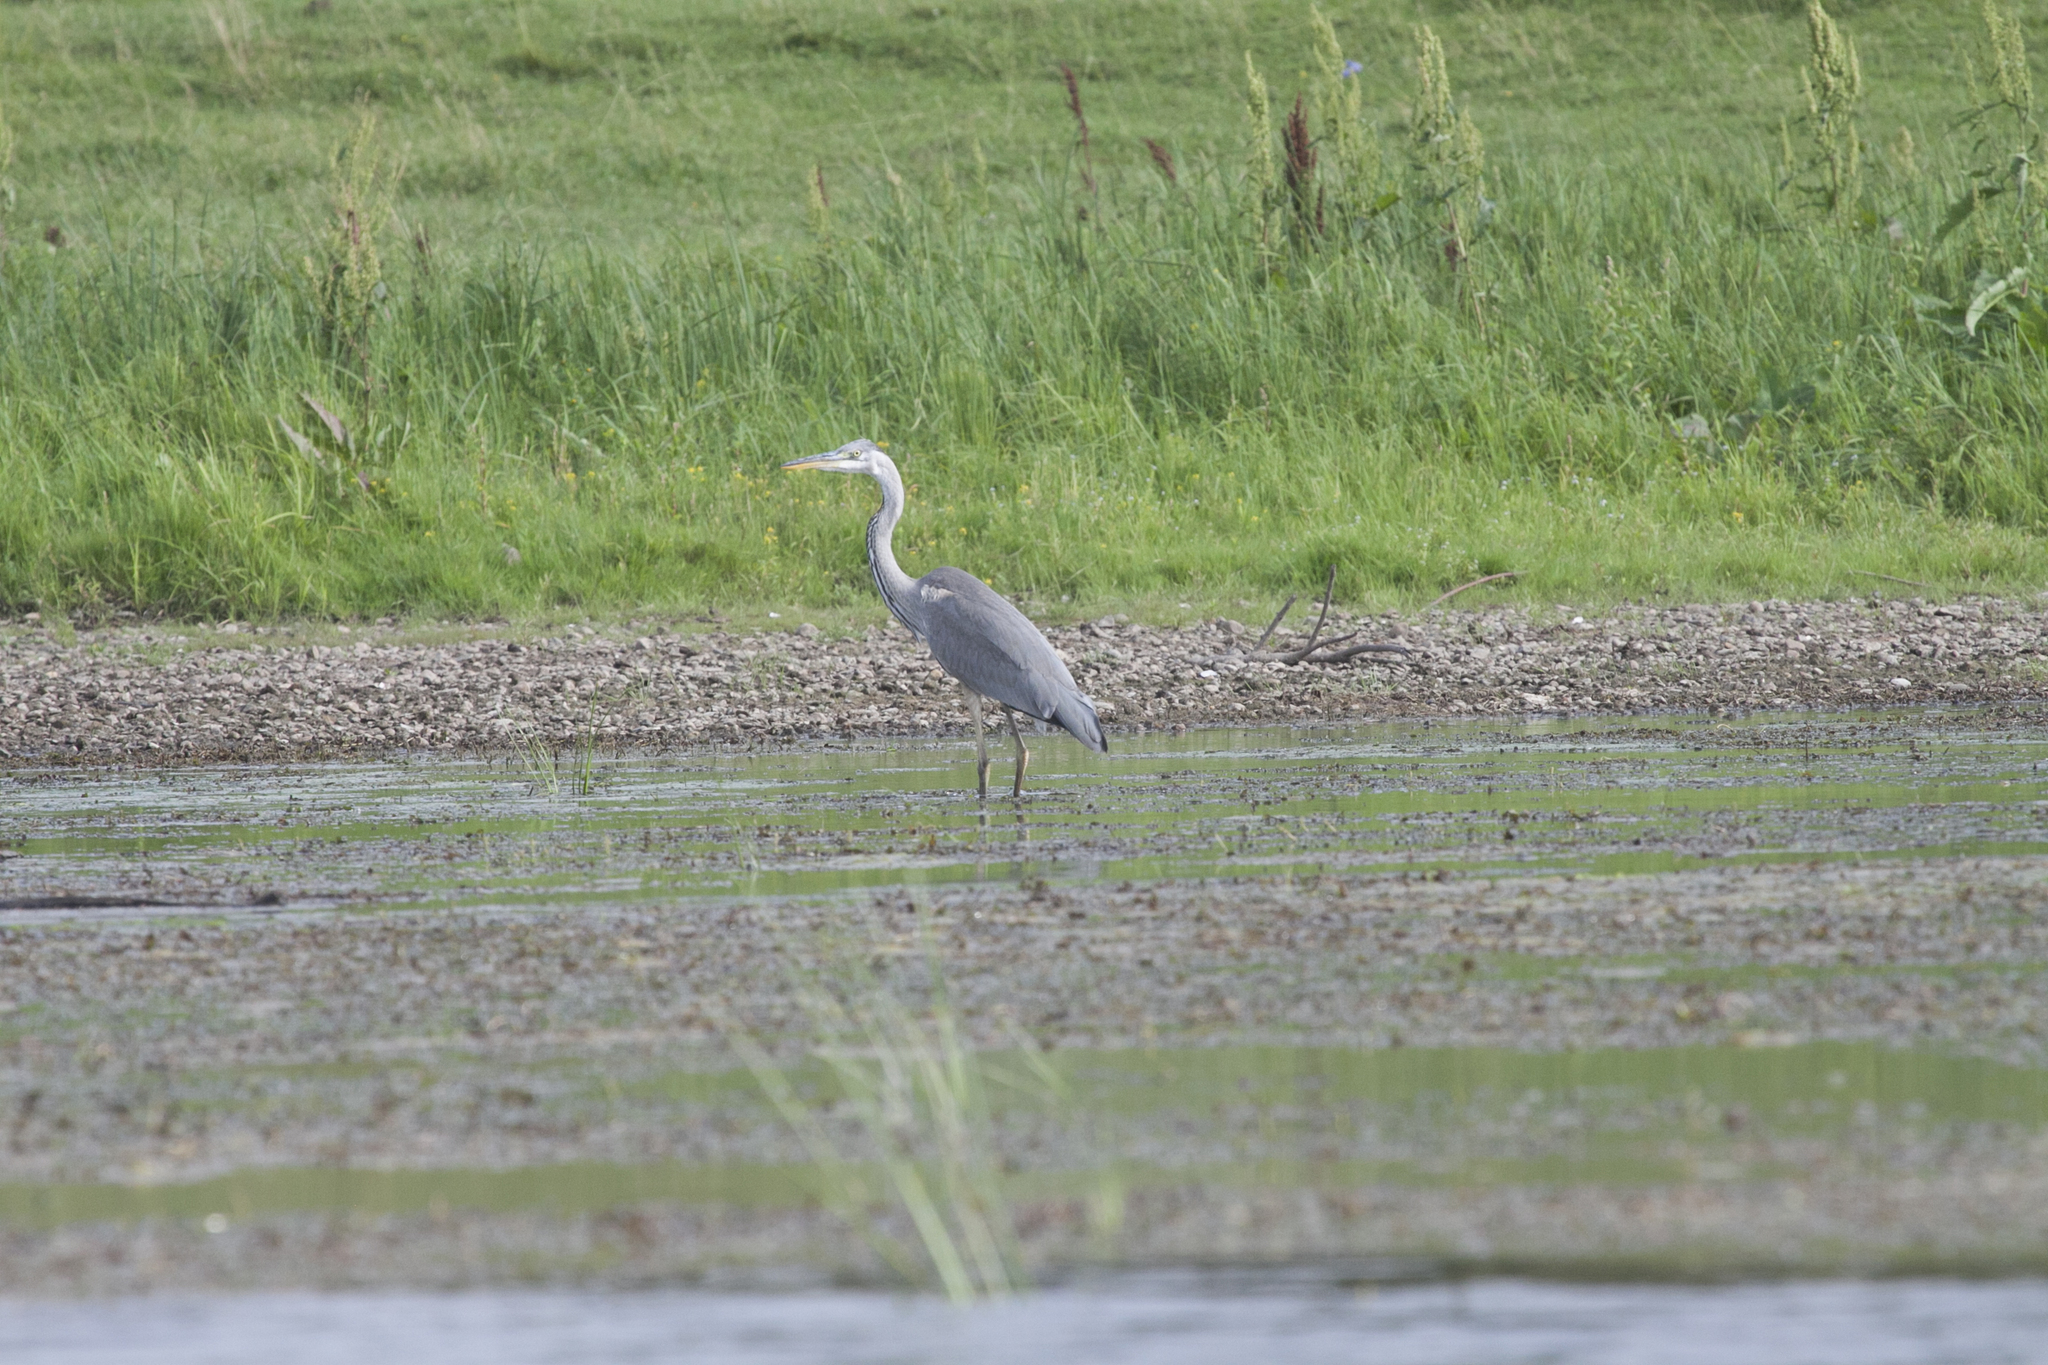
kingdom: Animalia
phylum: Chordata
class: Aves
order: Pelecaniformes
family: Ardeidae
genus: Ardea
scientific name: Ardea cinerea
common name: Grey heron
